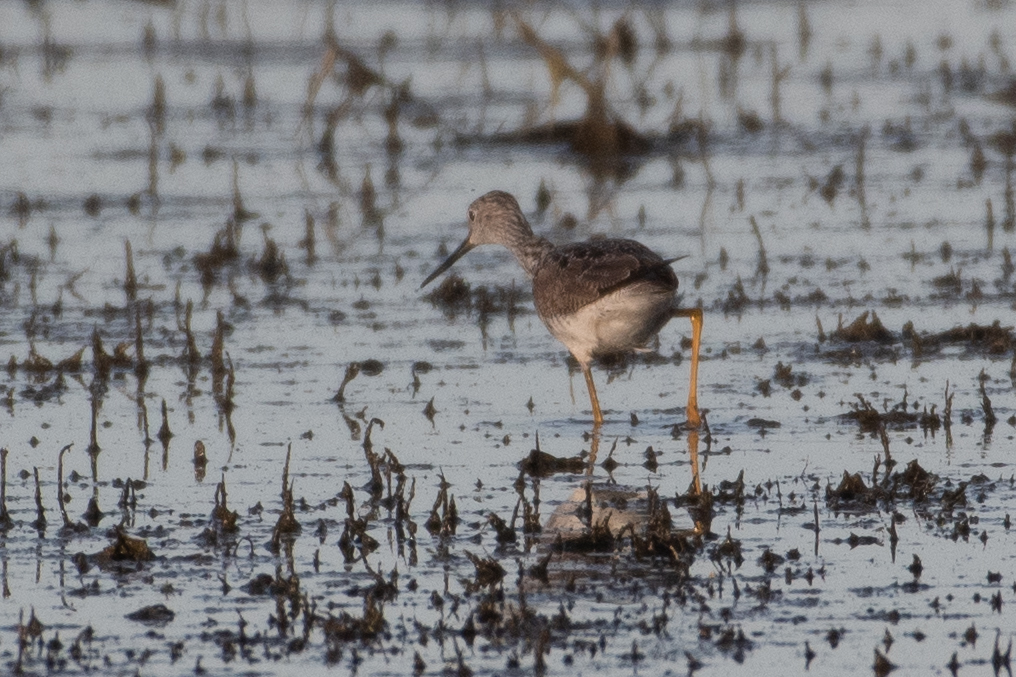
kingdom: Animalia
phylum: Chordata
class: Aves
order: Charadriiformes
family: Scolopacidae
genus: Tringa
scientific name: Tringa melanoleuca
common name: Greater yellowlegs
